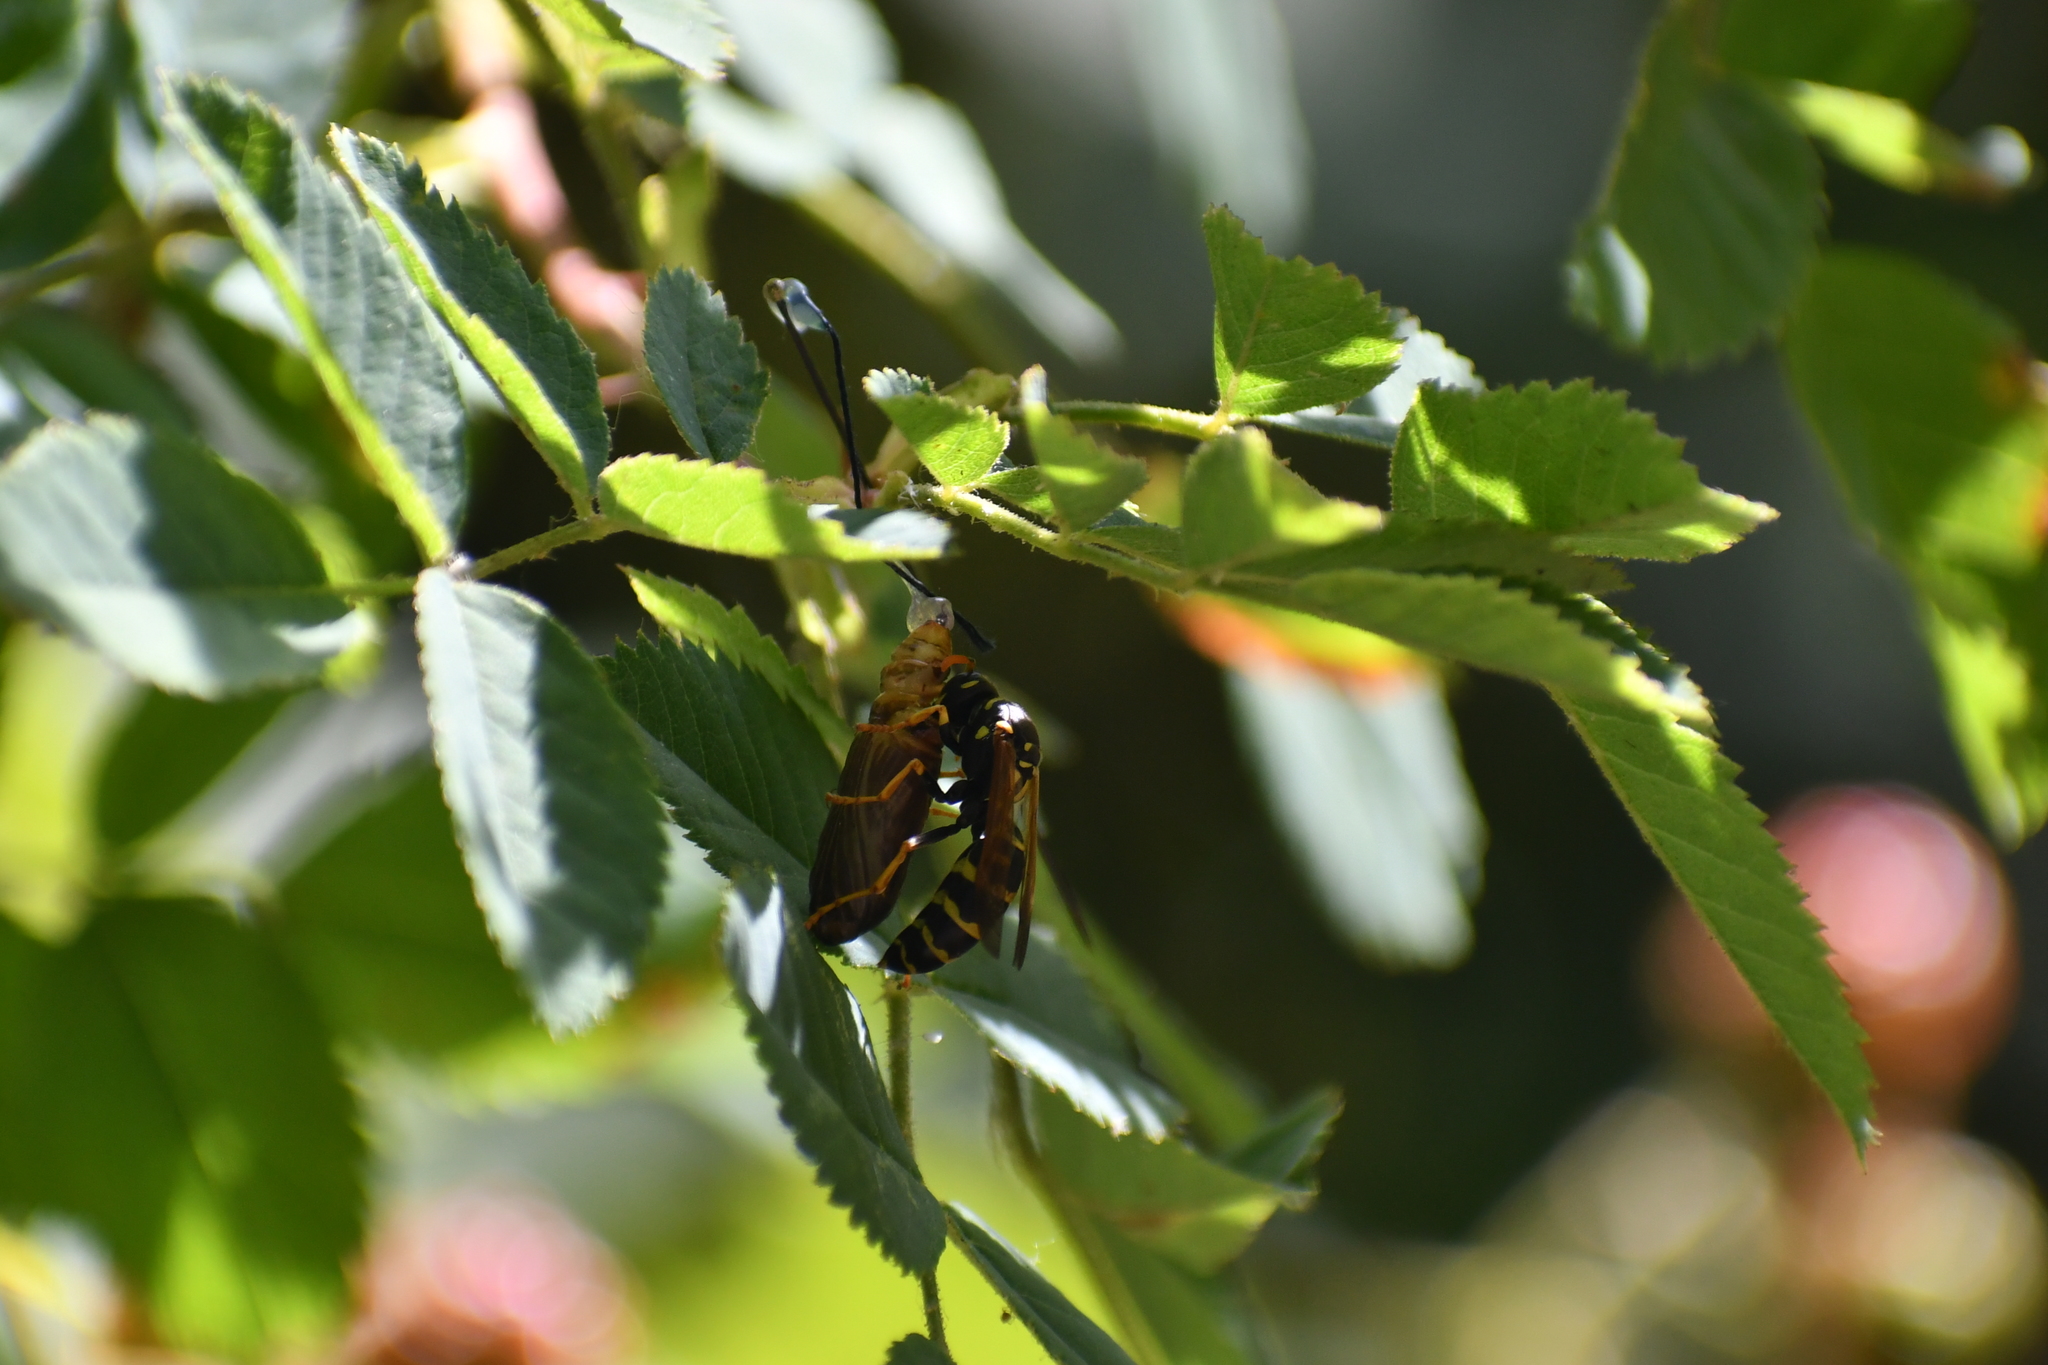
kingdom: Animalia
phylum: Arthropoda
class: Insecta
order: Hymenoptera
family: Eumenidae
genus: Polistes
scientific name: Polistes dominula
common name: Paper wasp
